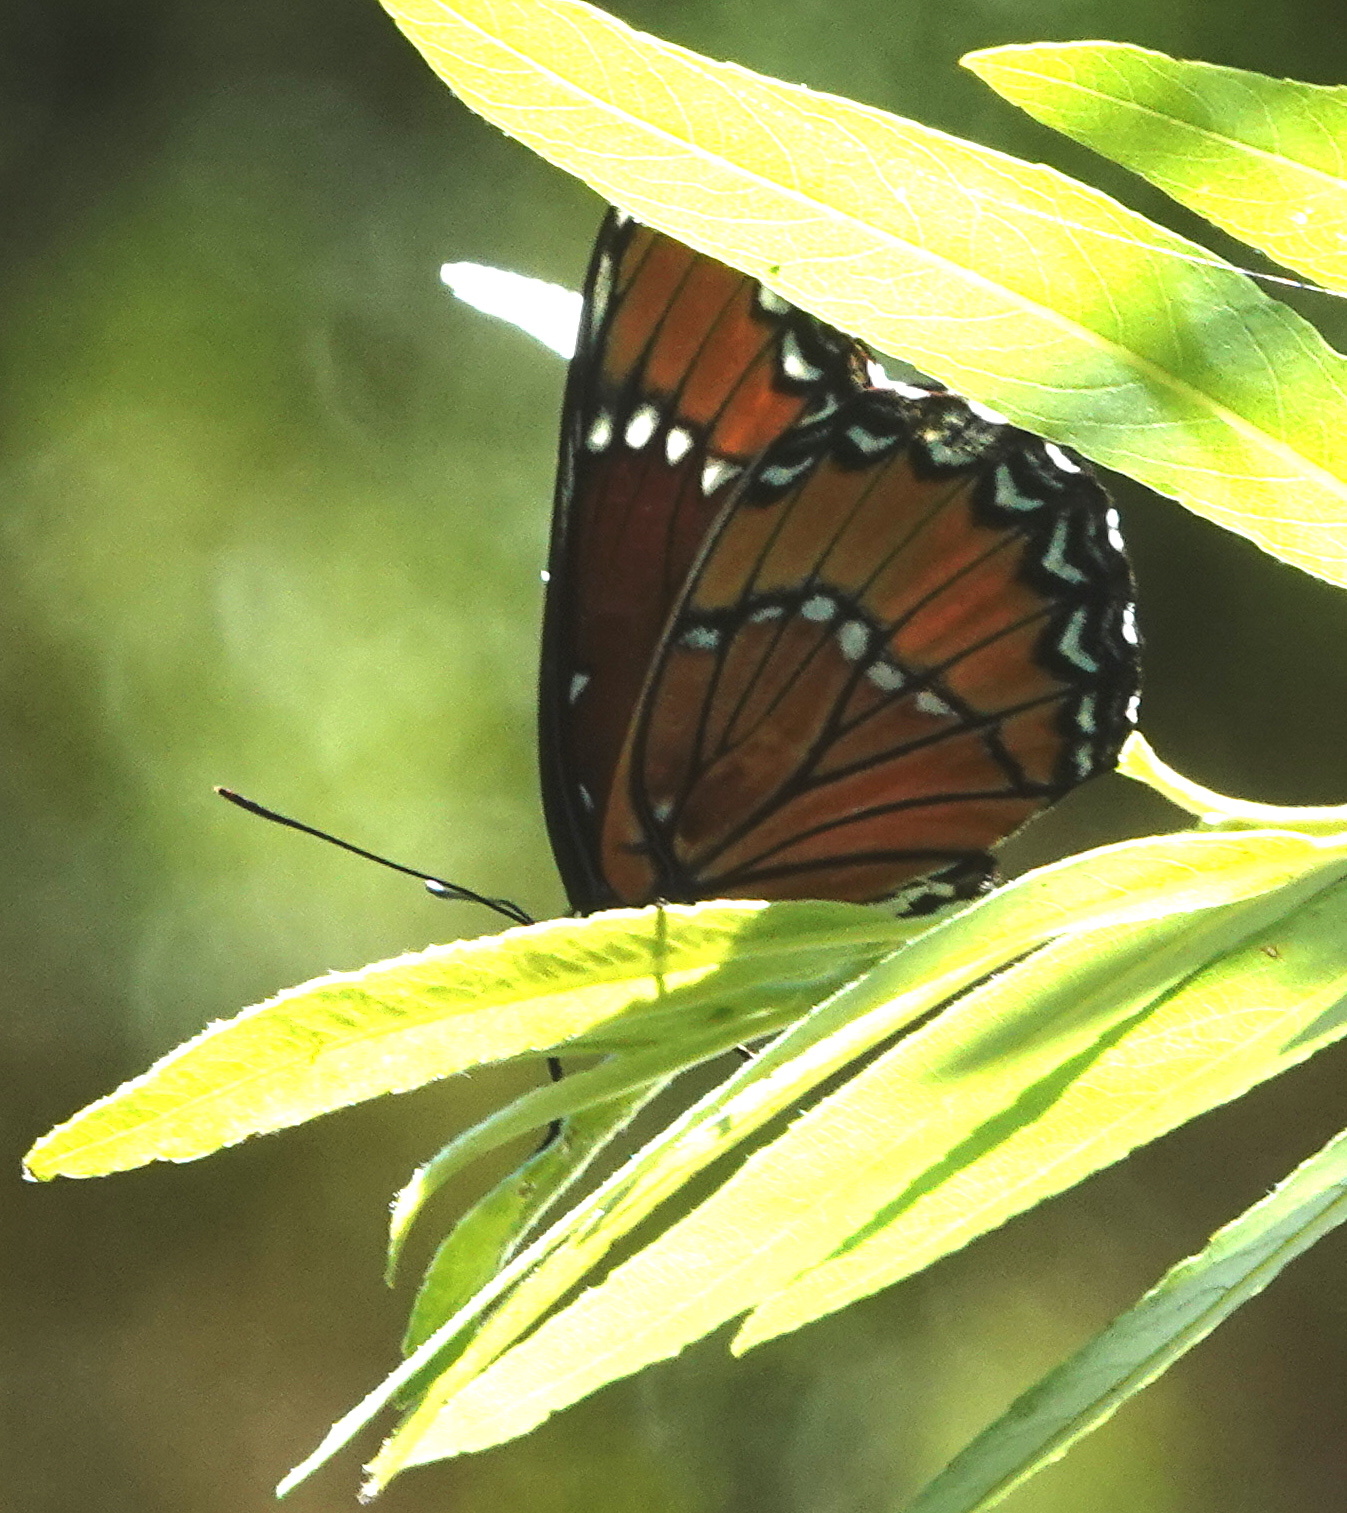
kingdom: Animalia
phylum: Arthropoda
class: Insecta
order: Lepidoptera
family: Nymphalidae
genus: Limenitis
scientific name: Limenitis archippus
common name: Viceroy
